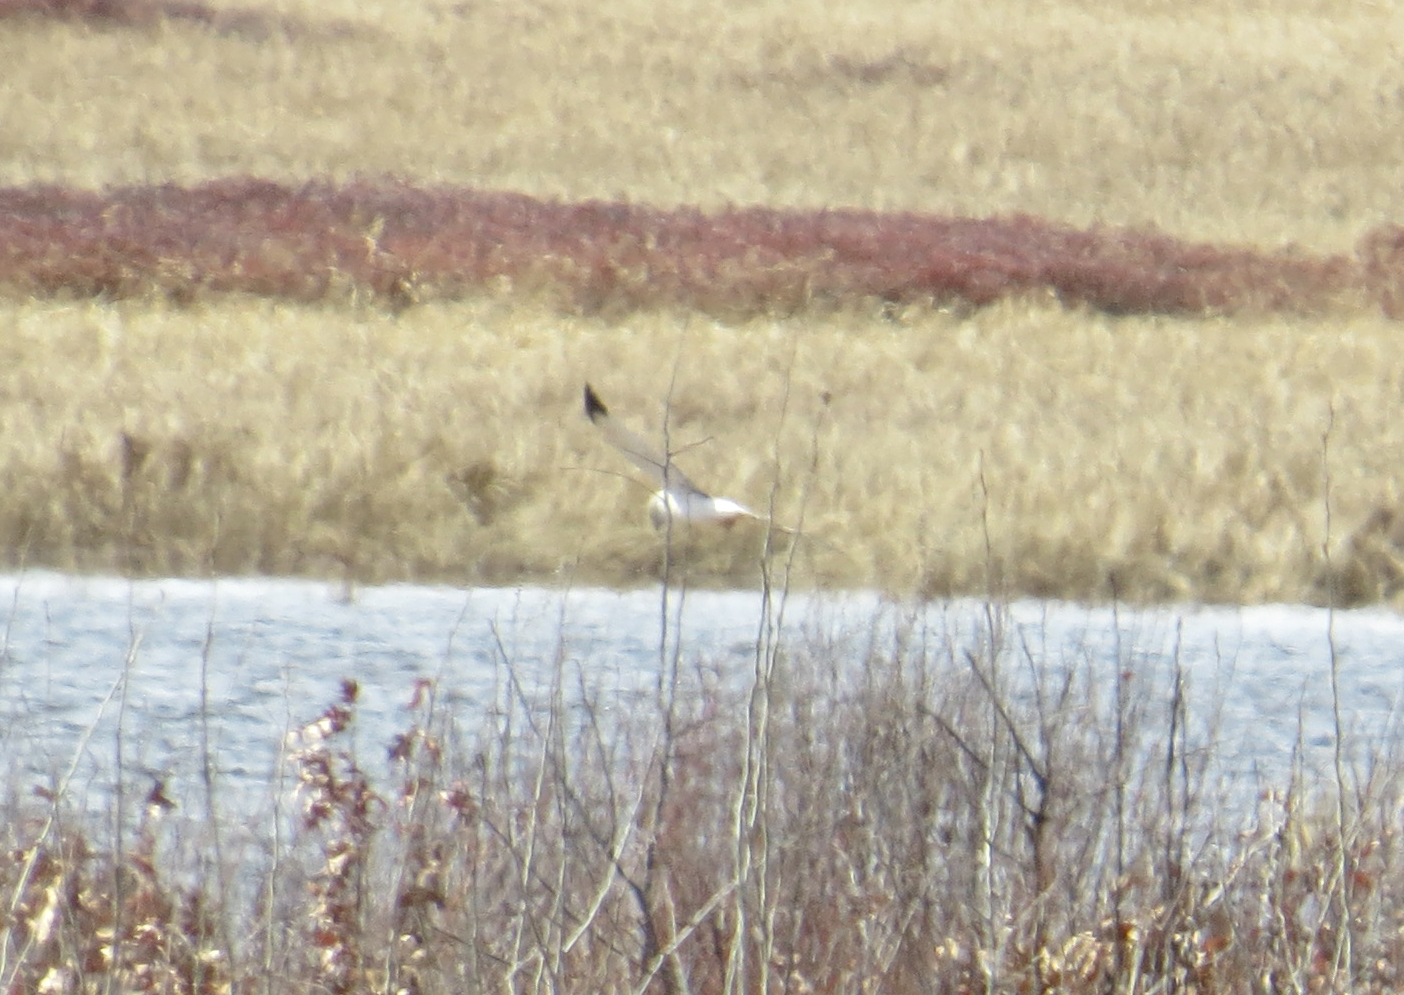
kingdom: Animalia
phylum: Chordata
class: Aves
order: Accipitriformes
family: Accipitridae
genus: Circus
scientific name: Circus cyaneus
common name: Hen harrier
